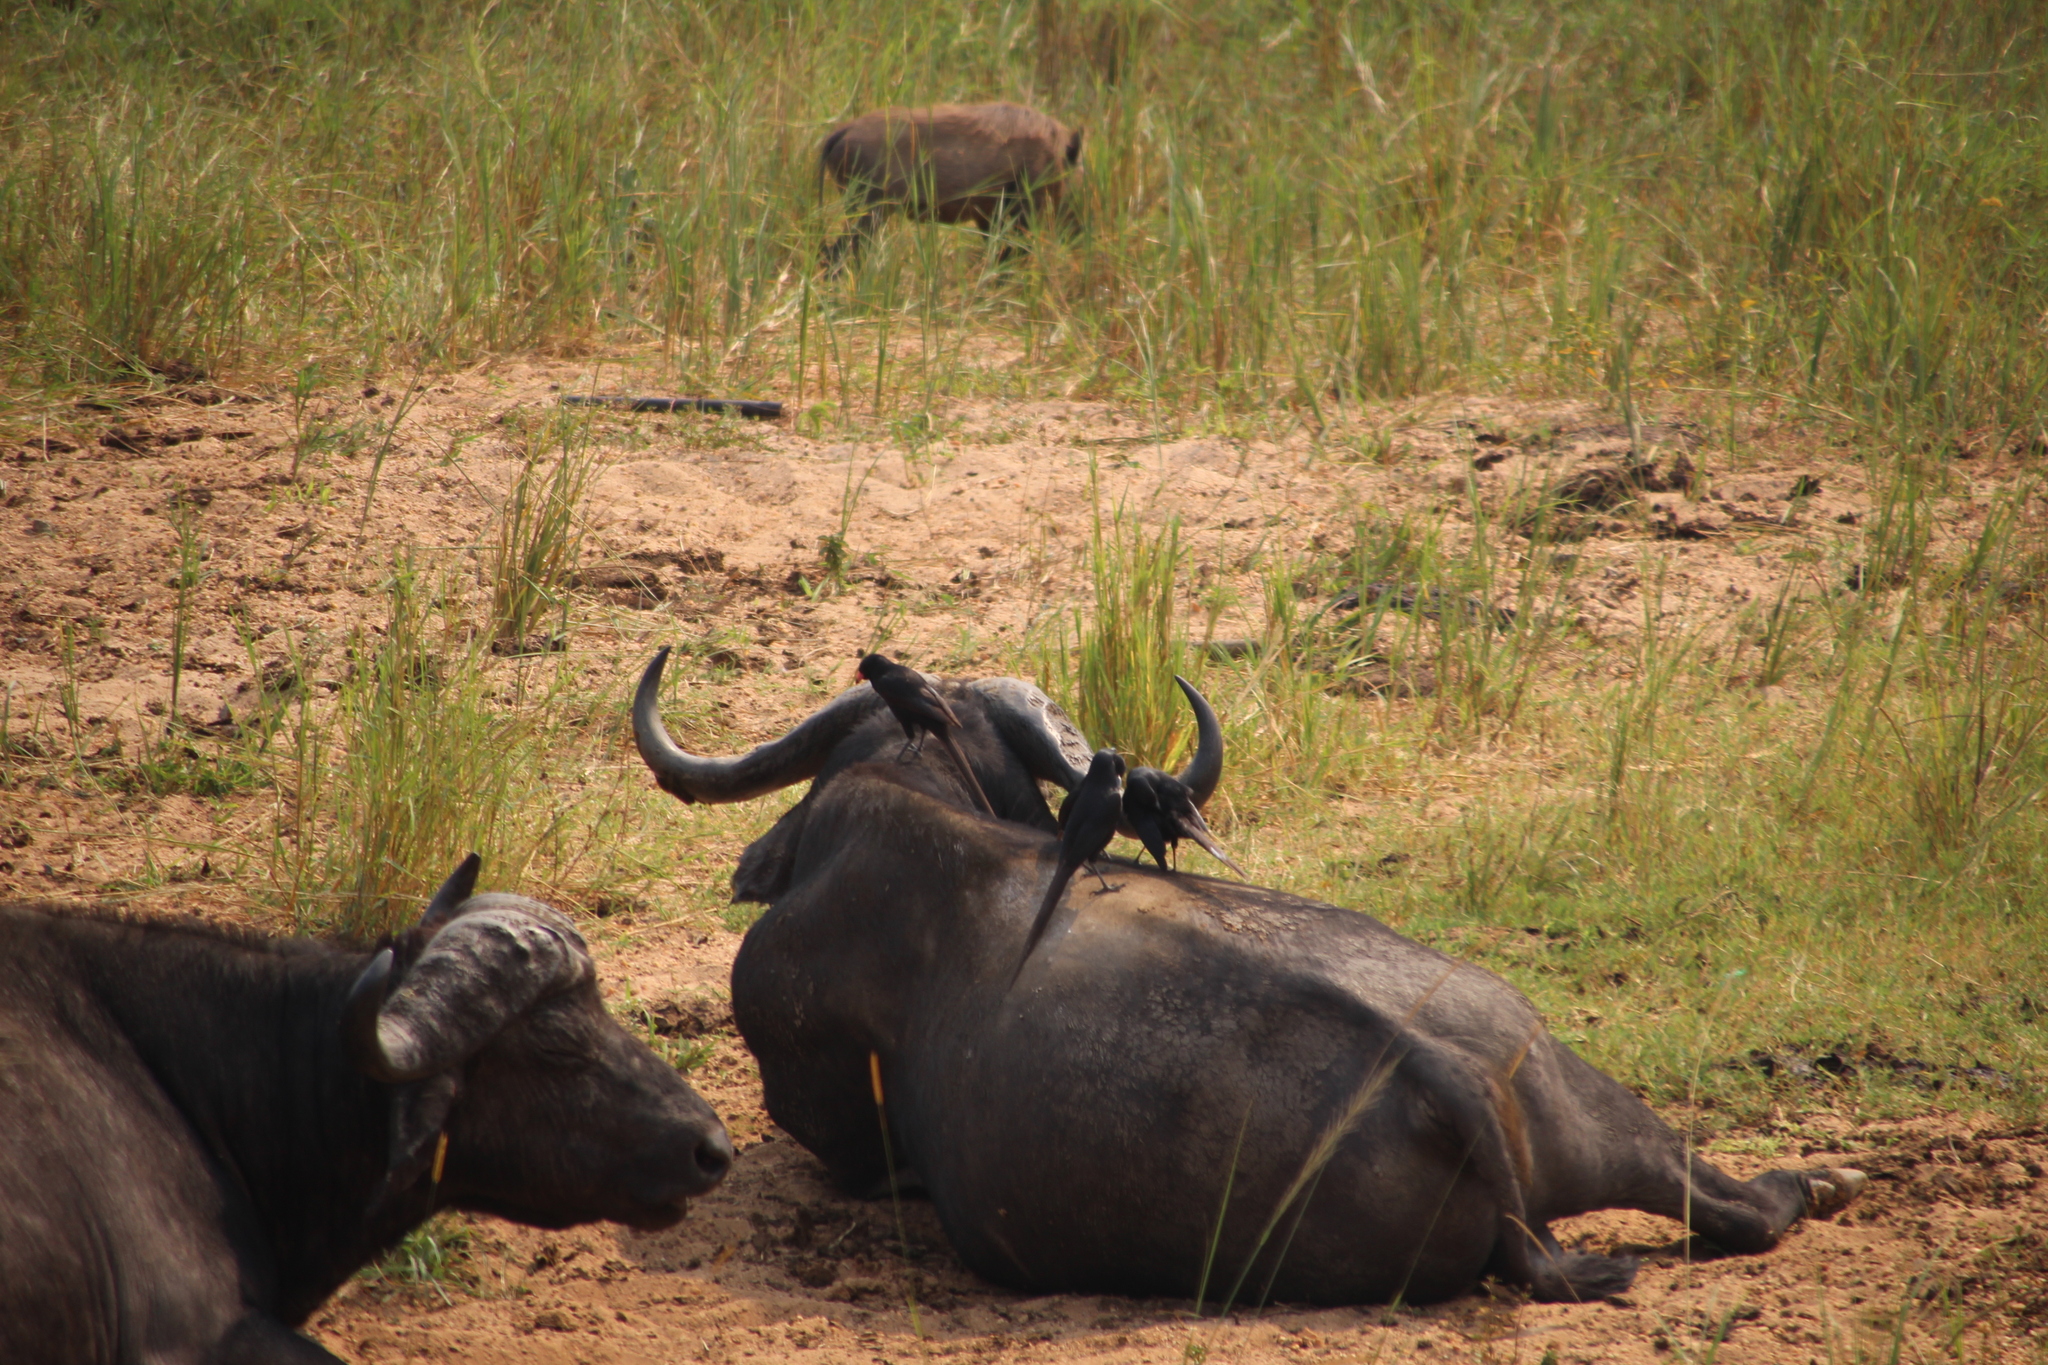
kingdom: Animalia
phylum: Chordata
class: Mammalia
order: Artiodactyla
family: Bovidae
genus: Syncerus
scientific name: Syncerus caffer
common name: African buffalo
